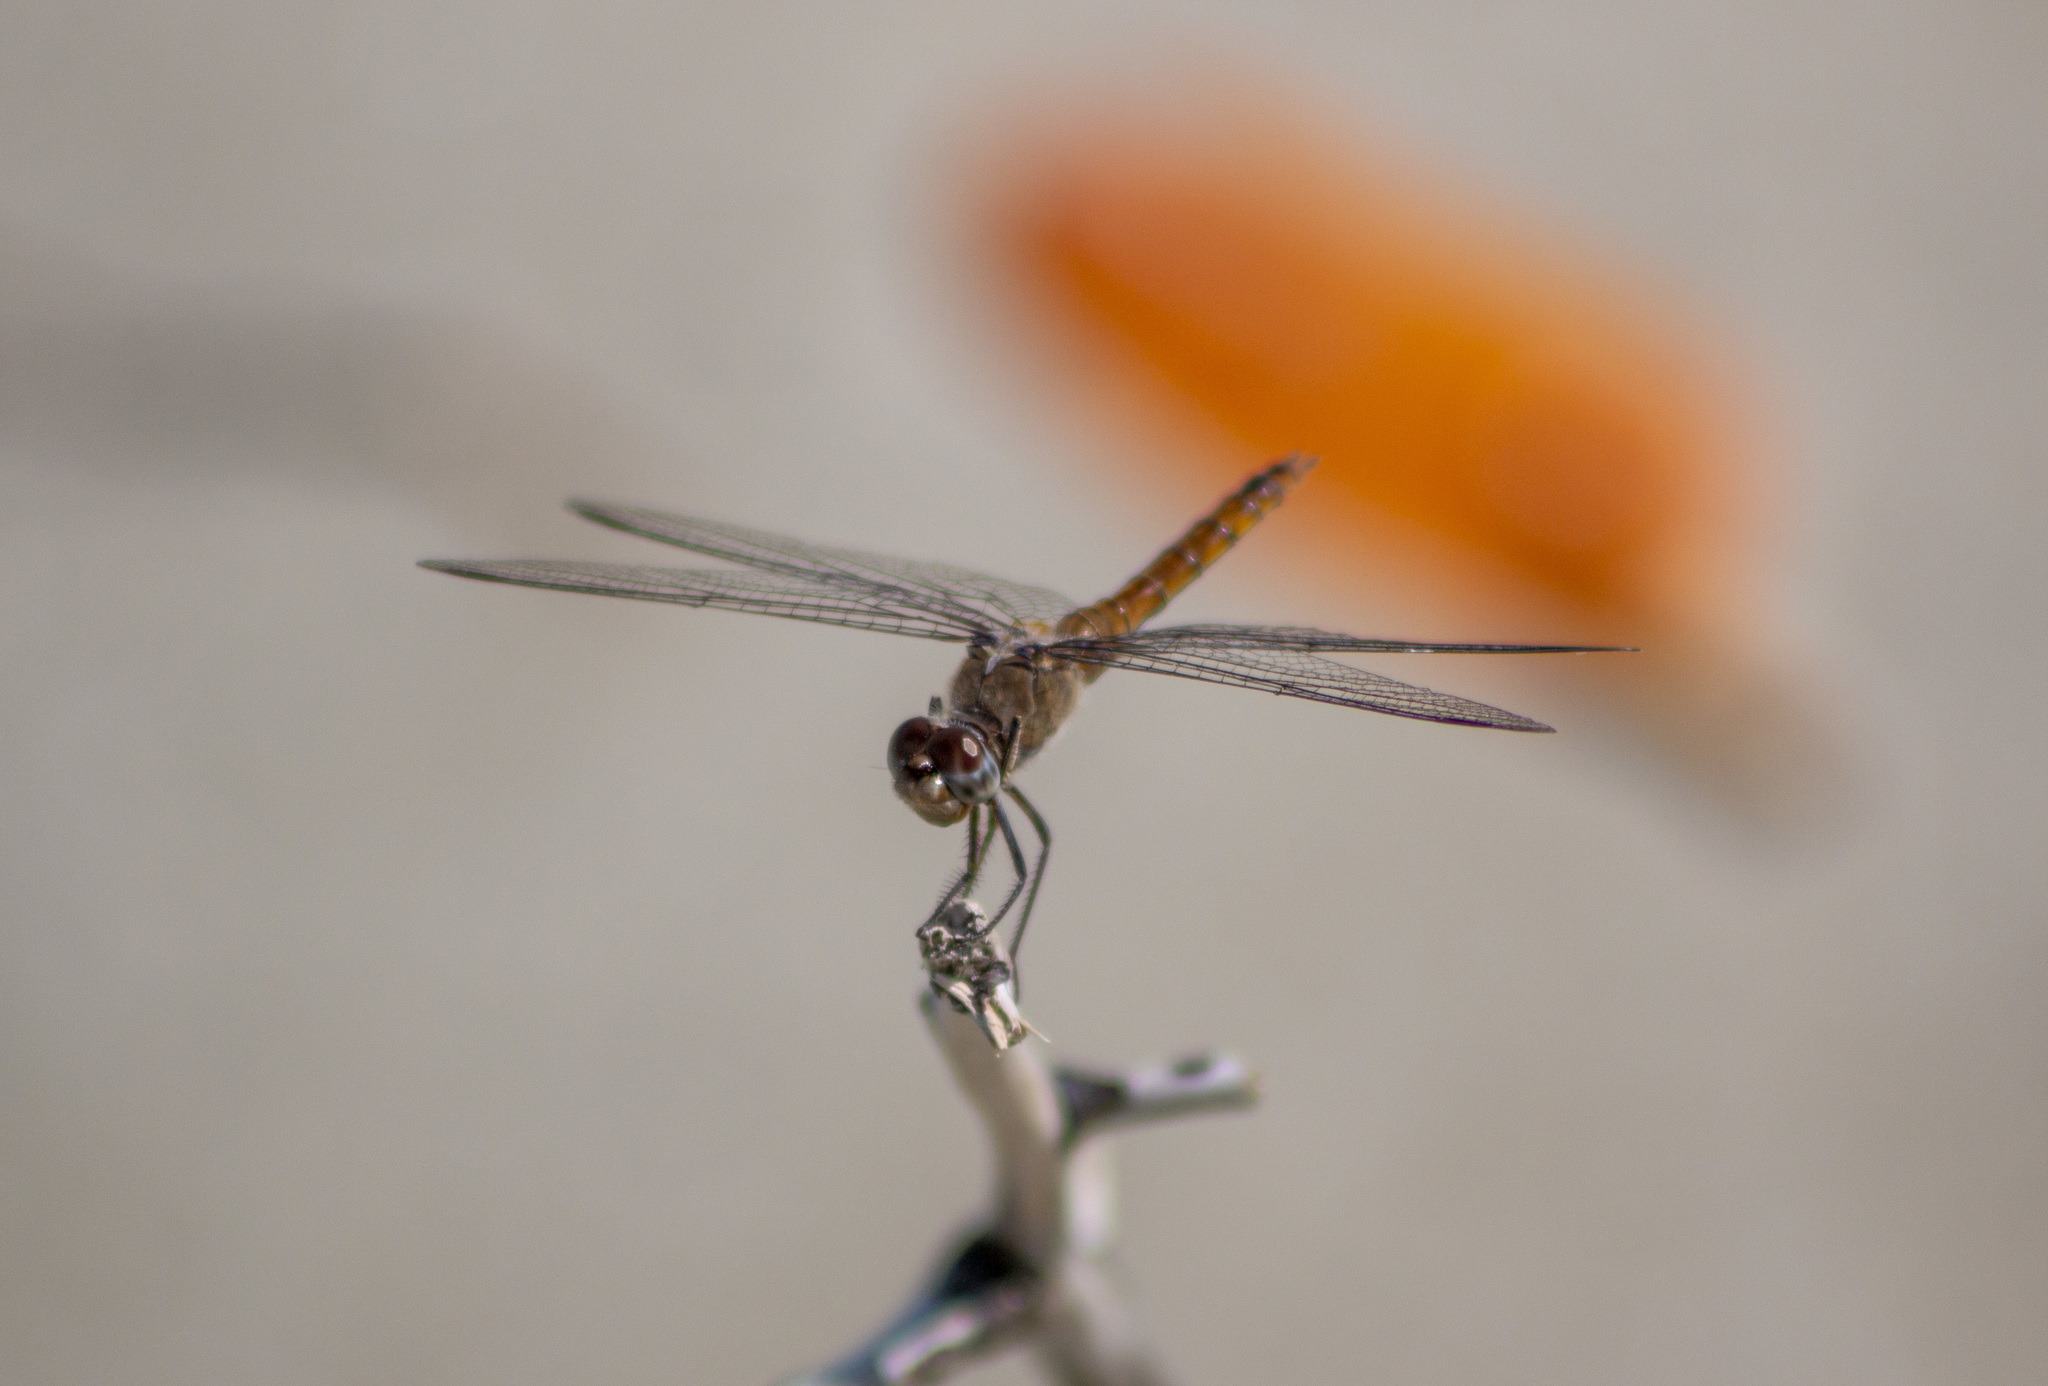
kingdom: Animalia
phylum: Arthropoda
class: Insecta
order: Odonata
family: Libellulidae
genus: Brachymesia
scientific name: Brachymesia furcata
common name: Red-taled pennant
